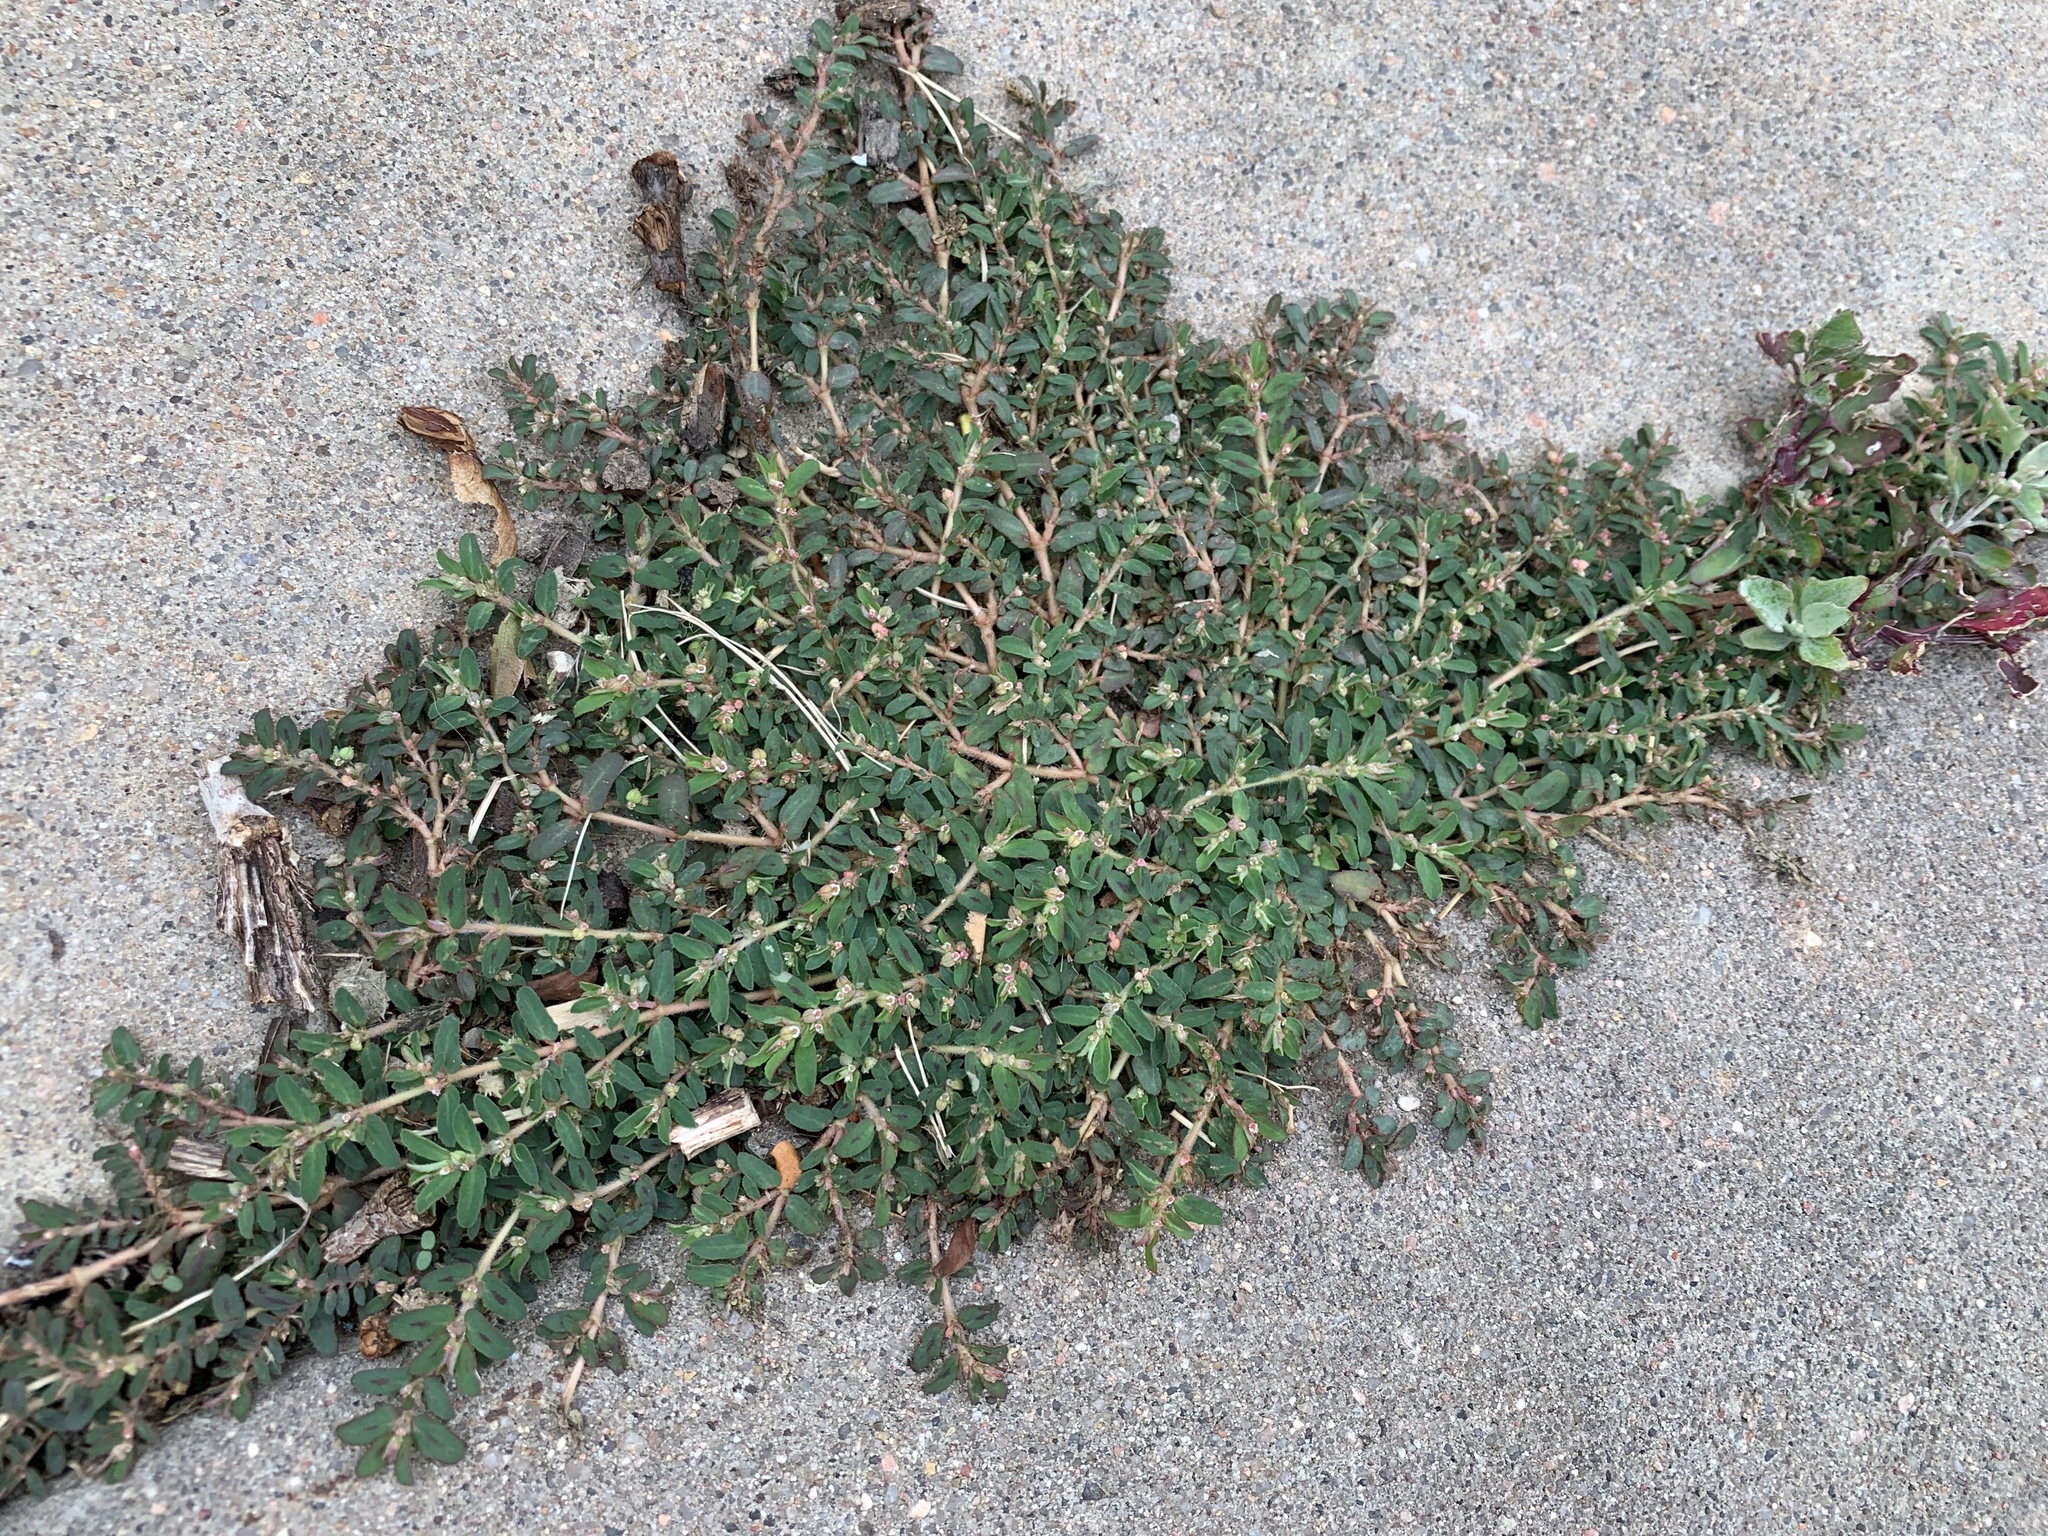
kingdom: Plantae
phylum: Tracheophyta
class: Magnoliopsida
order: Malpighiales
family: Euphorbiaceae
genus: Euphorbia
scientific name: Euphorbia maculata
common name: Spotted spurge
